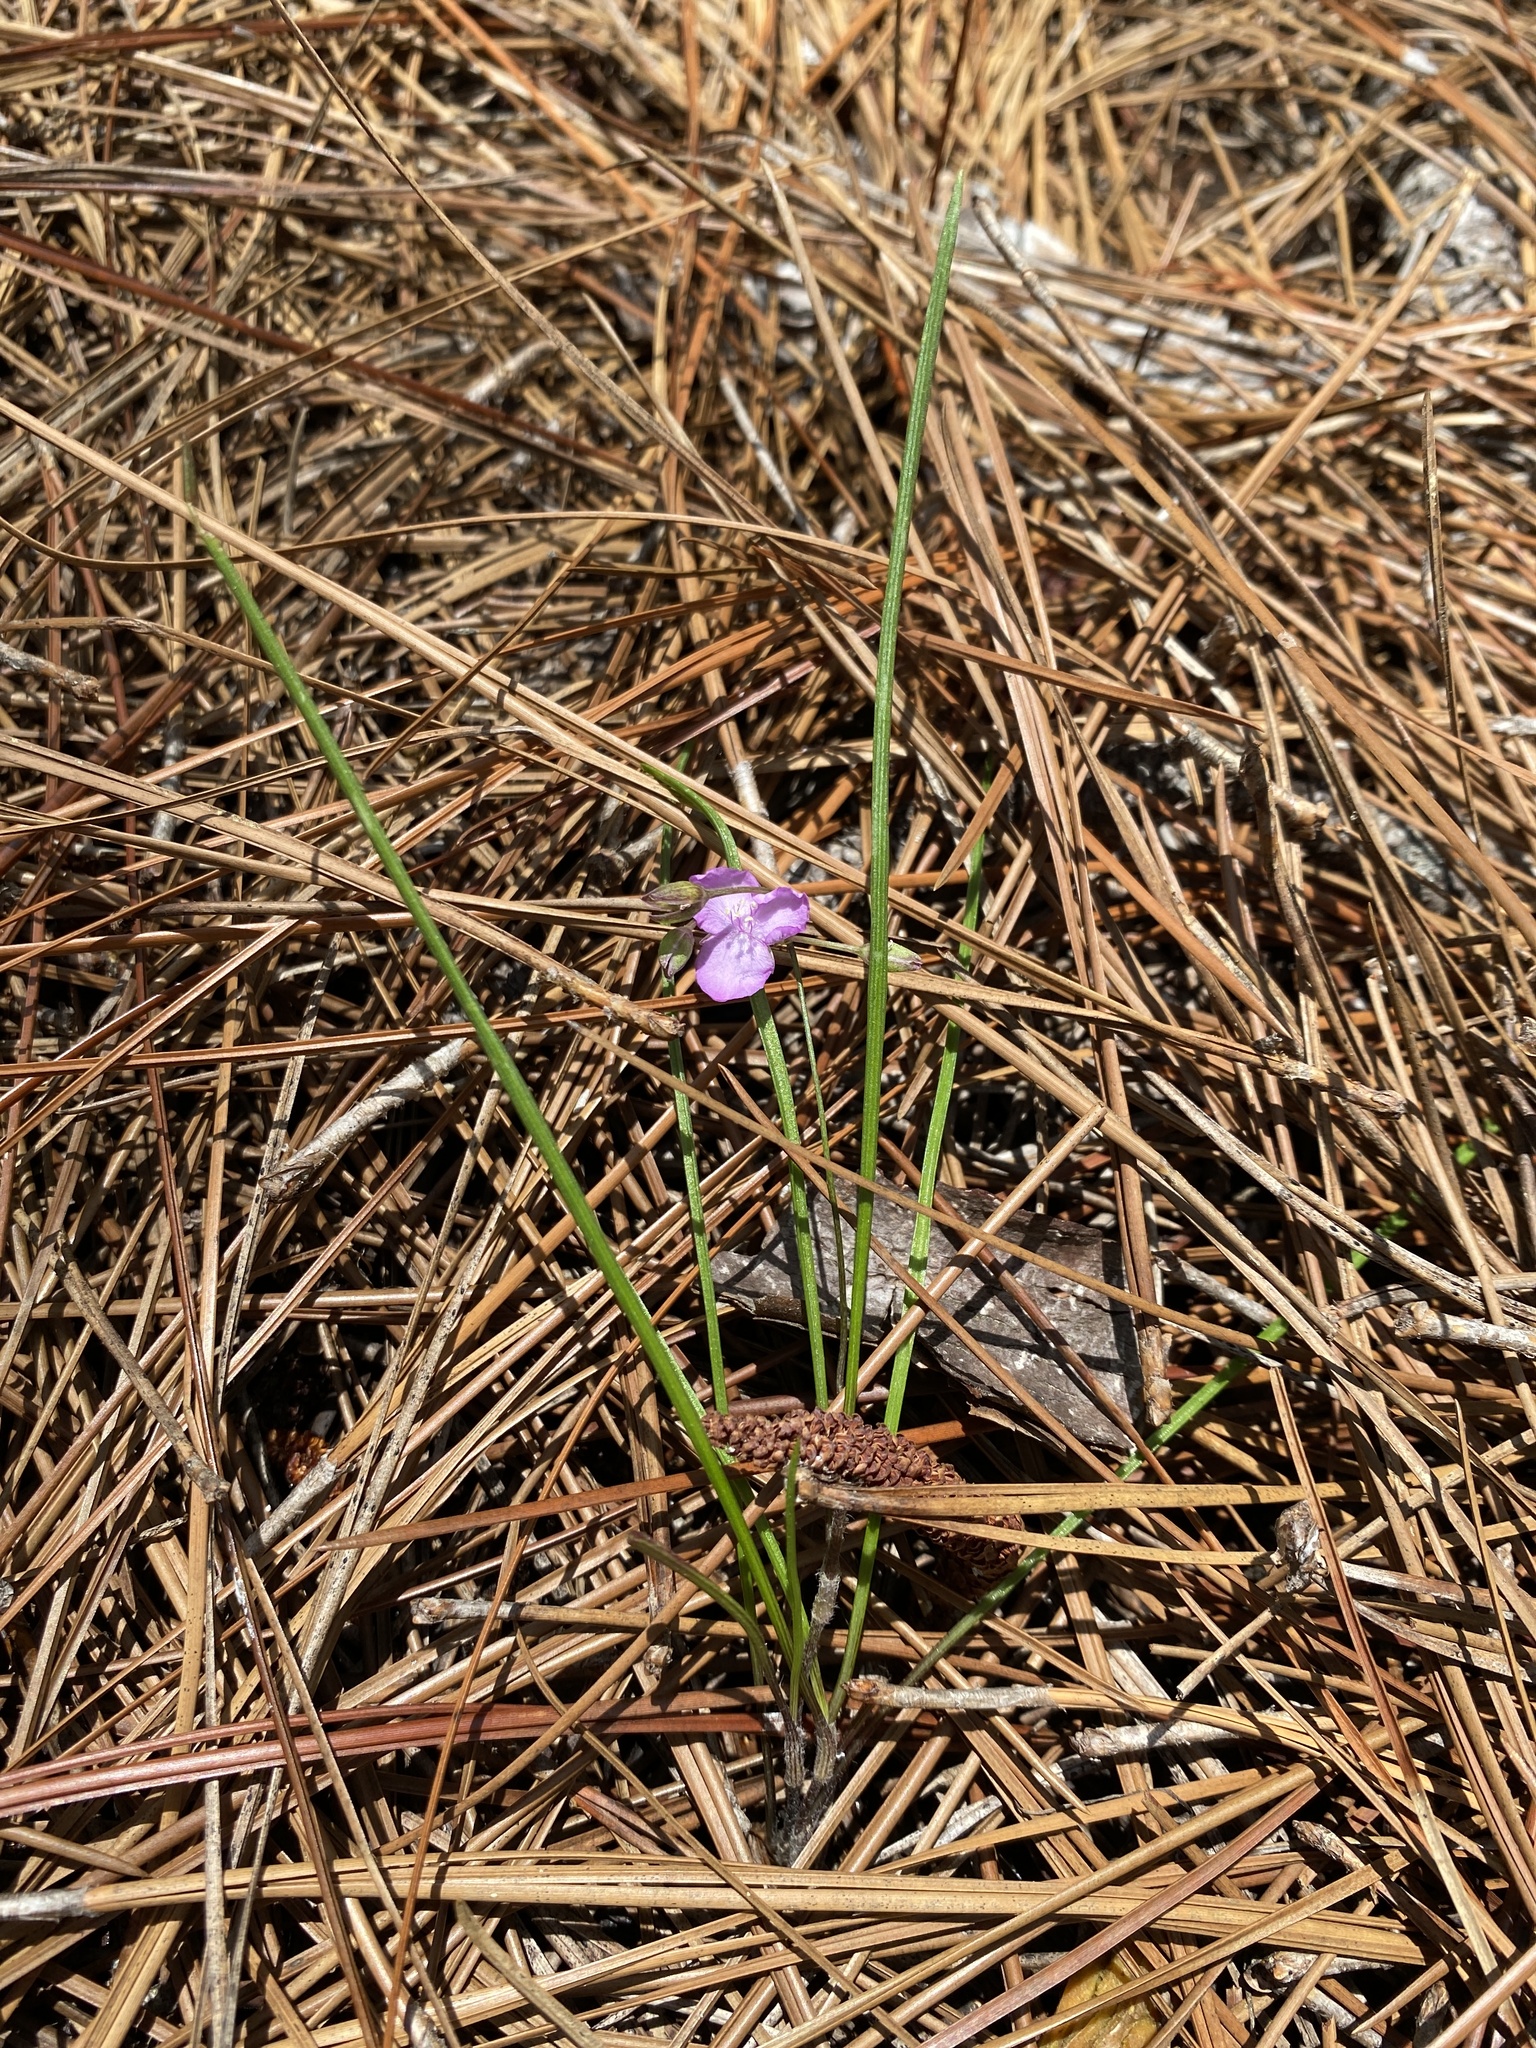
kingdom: Plantae
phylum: Tracheophyta
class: Liliopsida
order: Commelinales
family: Commelinaceae
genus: Callisia
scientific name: Callisia graminea
